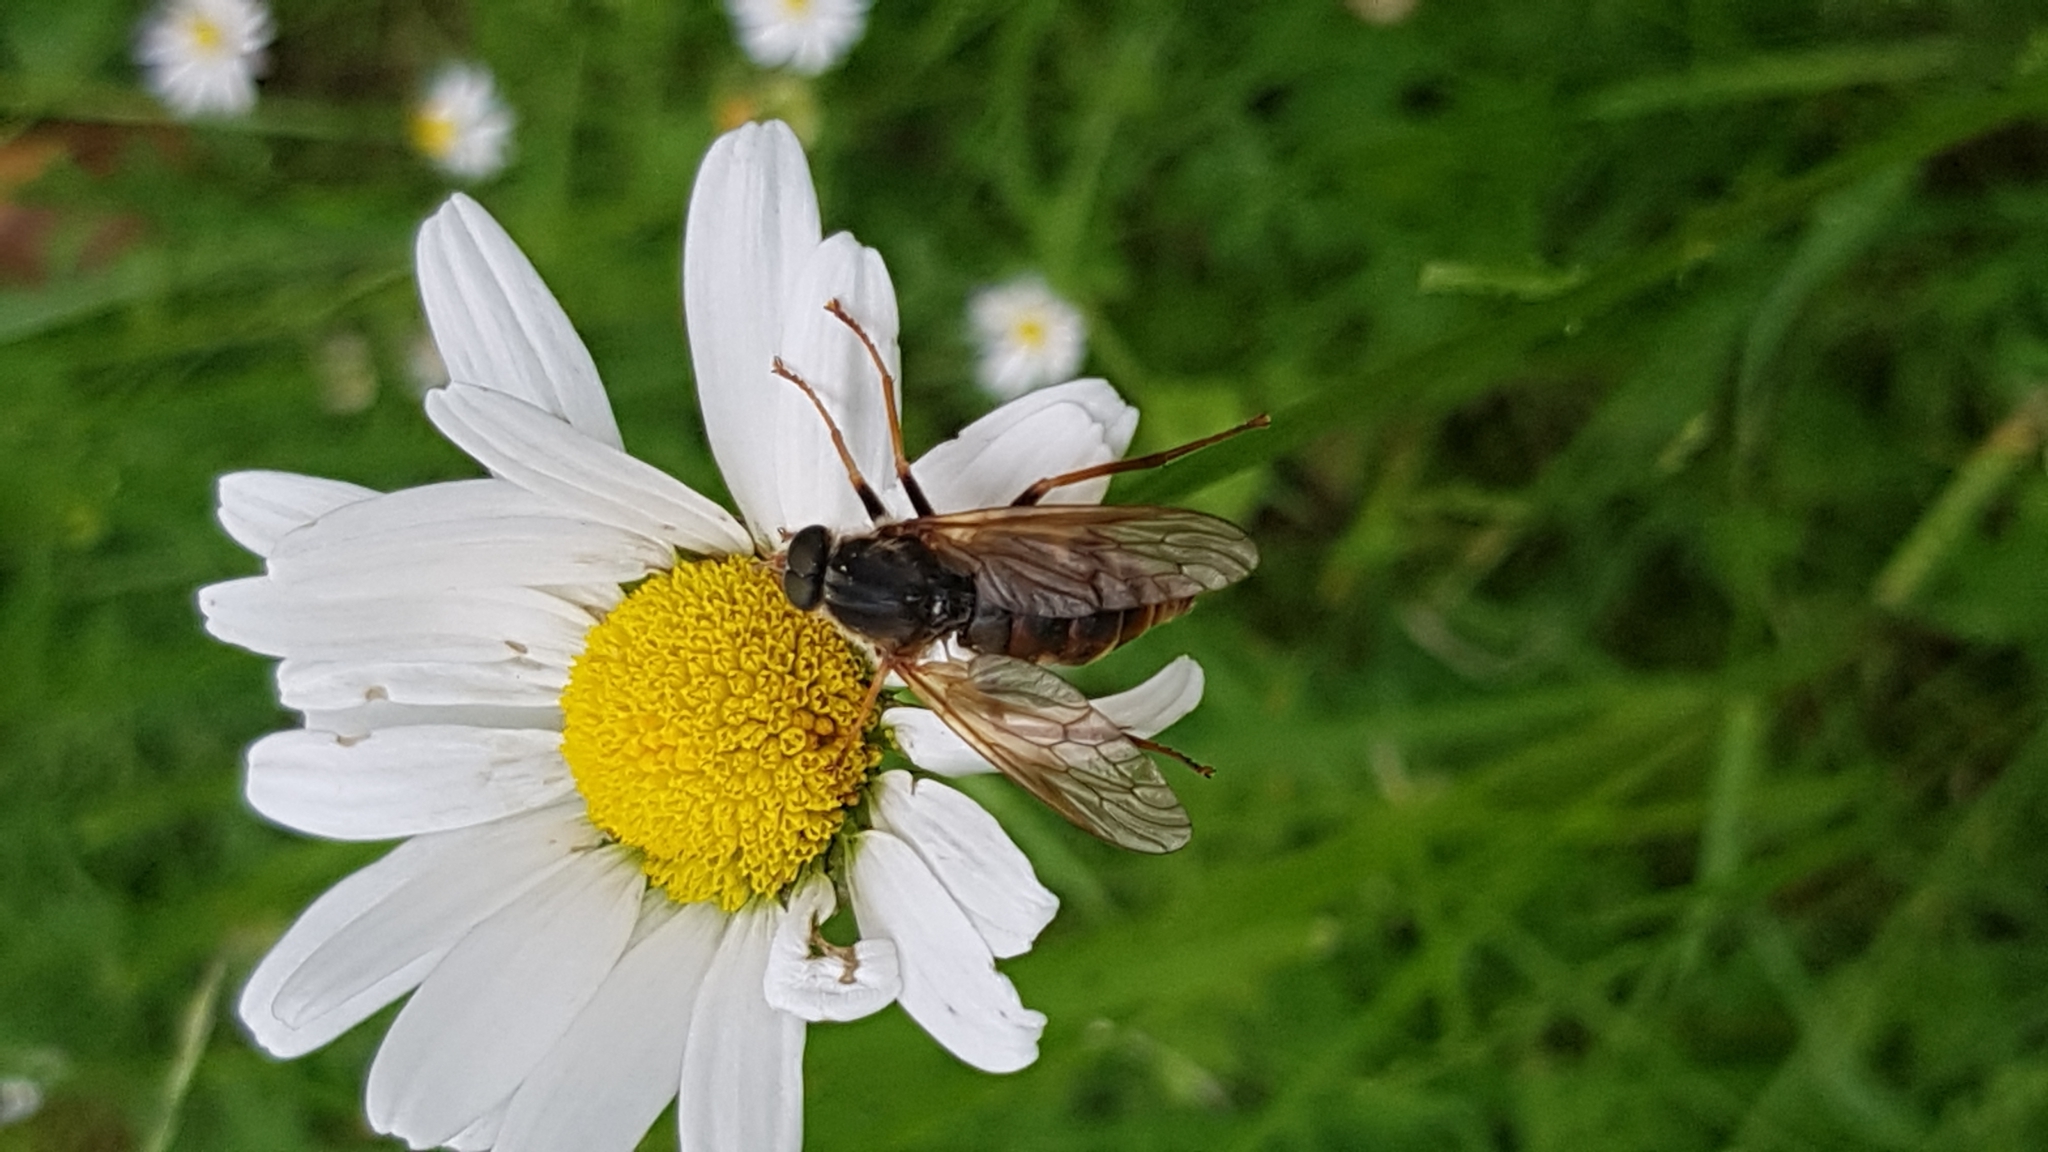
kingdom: Animalia
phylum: Arthropoda
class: Insecta
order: Diptera
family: Xylophagidae
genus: Coenomyia
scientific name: Coenomyia ferruginea
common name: Stink fly
